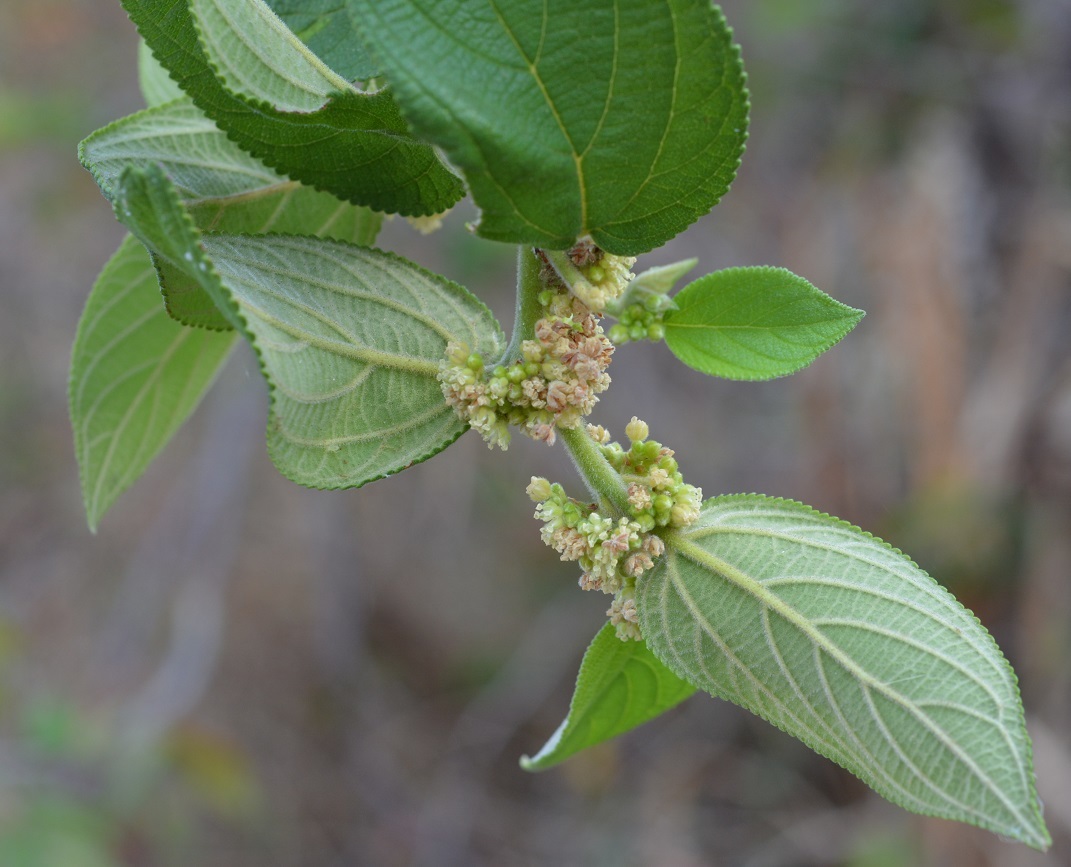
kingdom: Plantae
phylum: Tracheophyta
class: Magnoliopsida
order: Rosales
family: Cannabaceae
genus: Trema
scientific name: Trema micranthum
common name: Jamaican nettletree
